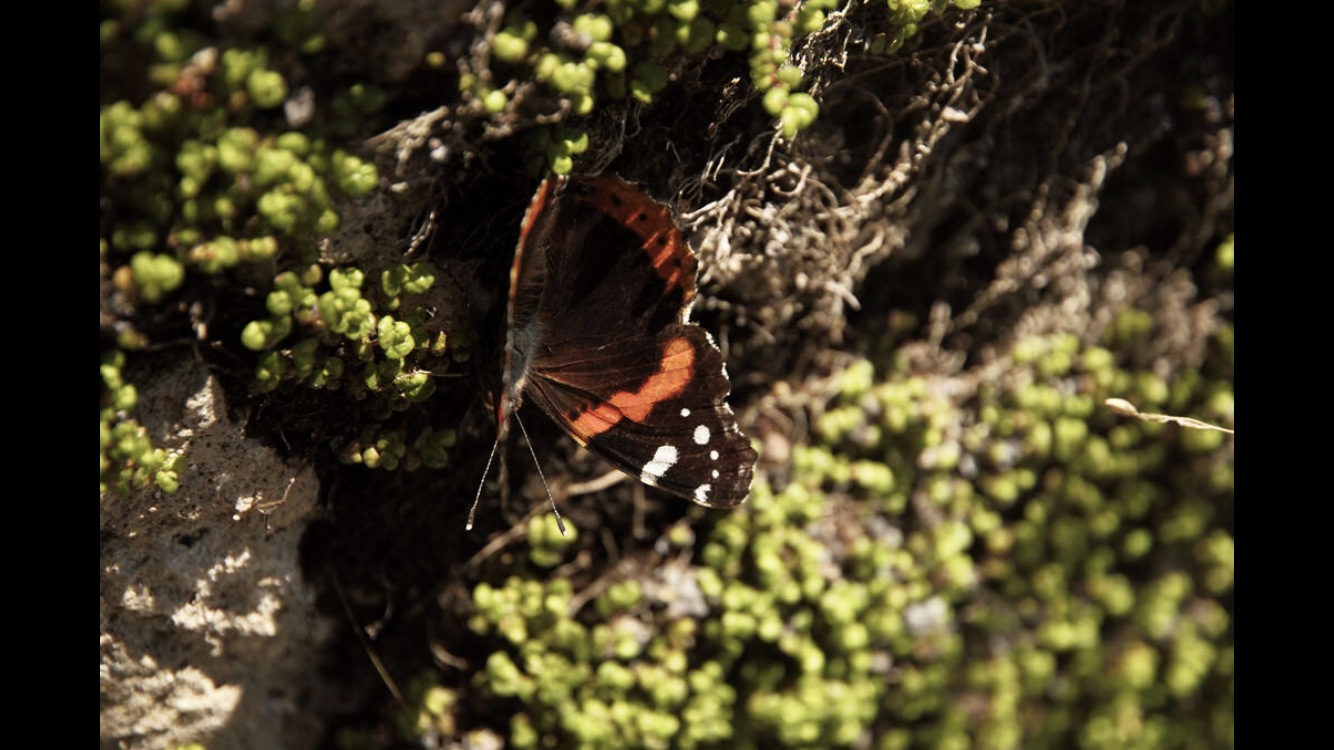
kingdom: Animalia
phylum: Arthropoda
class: Insecta
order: Lepidoptera
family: Nymphalidae
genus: Vanessa
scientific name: Vanessa atalanta
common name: Red admiral
